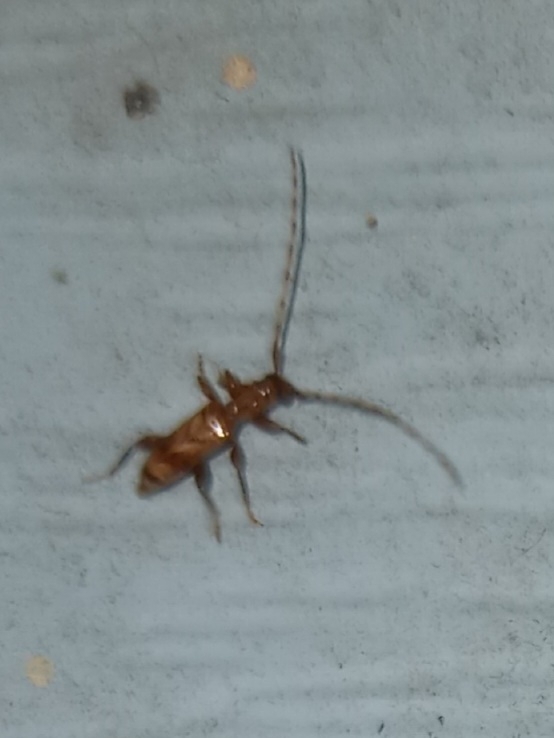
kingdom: Animalia
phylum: Arthropoda
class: Insecta
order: Coleoptera
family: Cerambycidae
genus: Obrium
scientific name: Obrium maculatum
